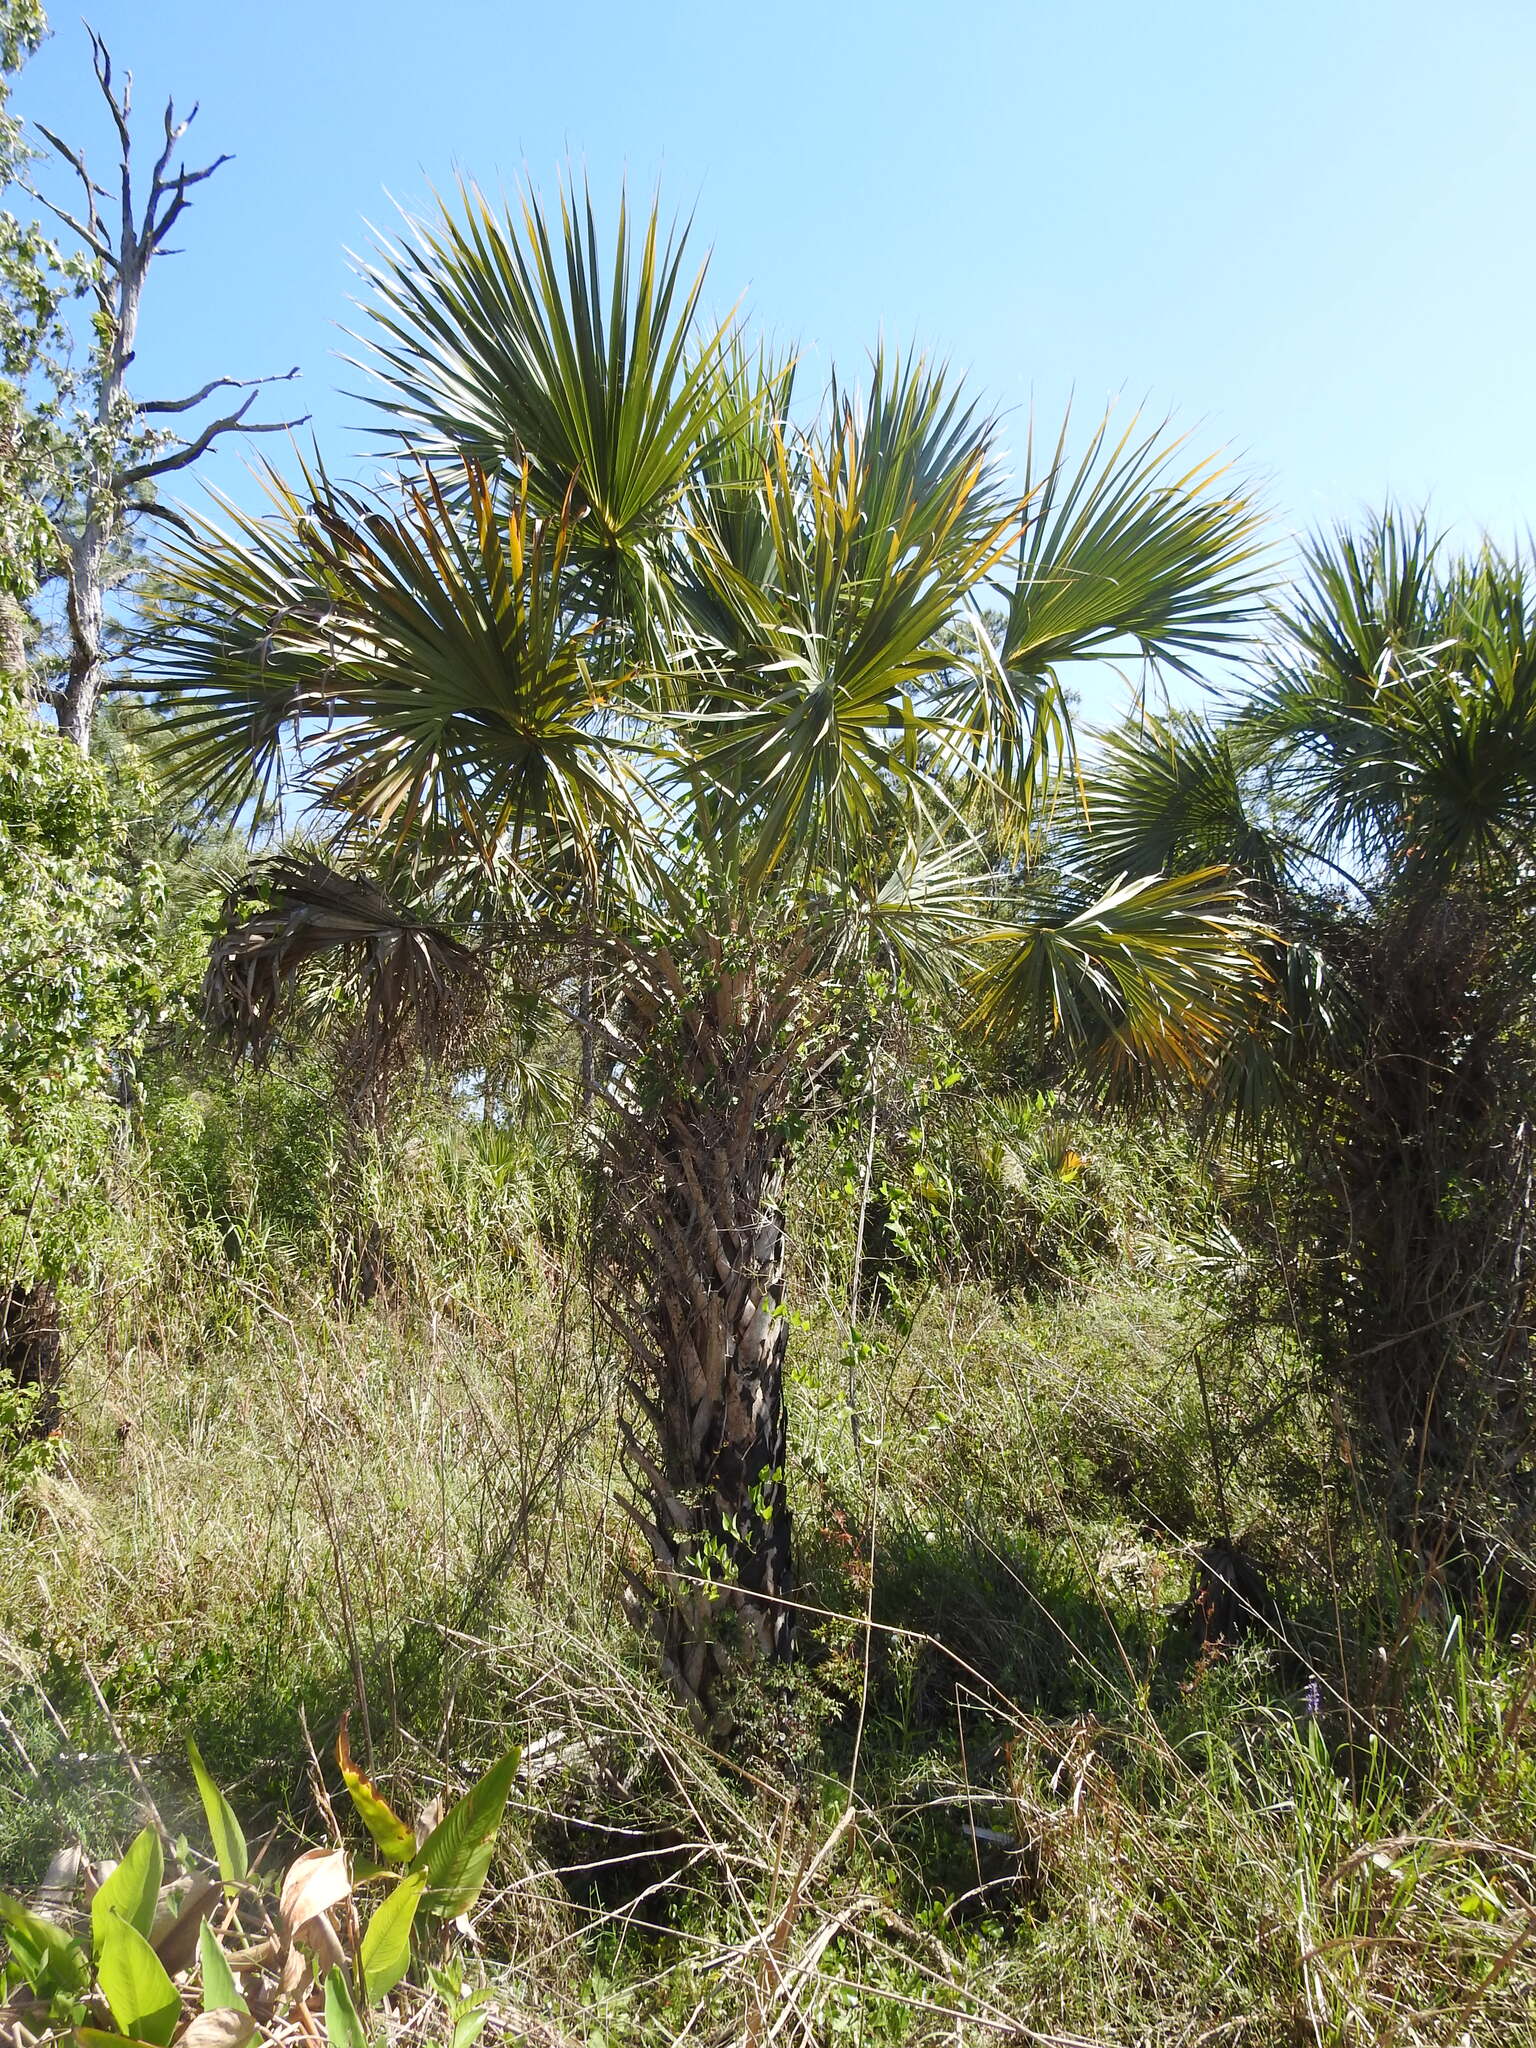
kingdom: Plantae
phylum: Tracheophyta
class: Liliopsida
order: Arecales
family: Arecaceae
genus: Sabal
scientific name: Sabal palmetto
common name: Blue palmetto
